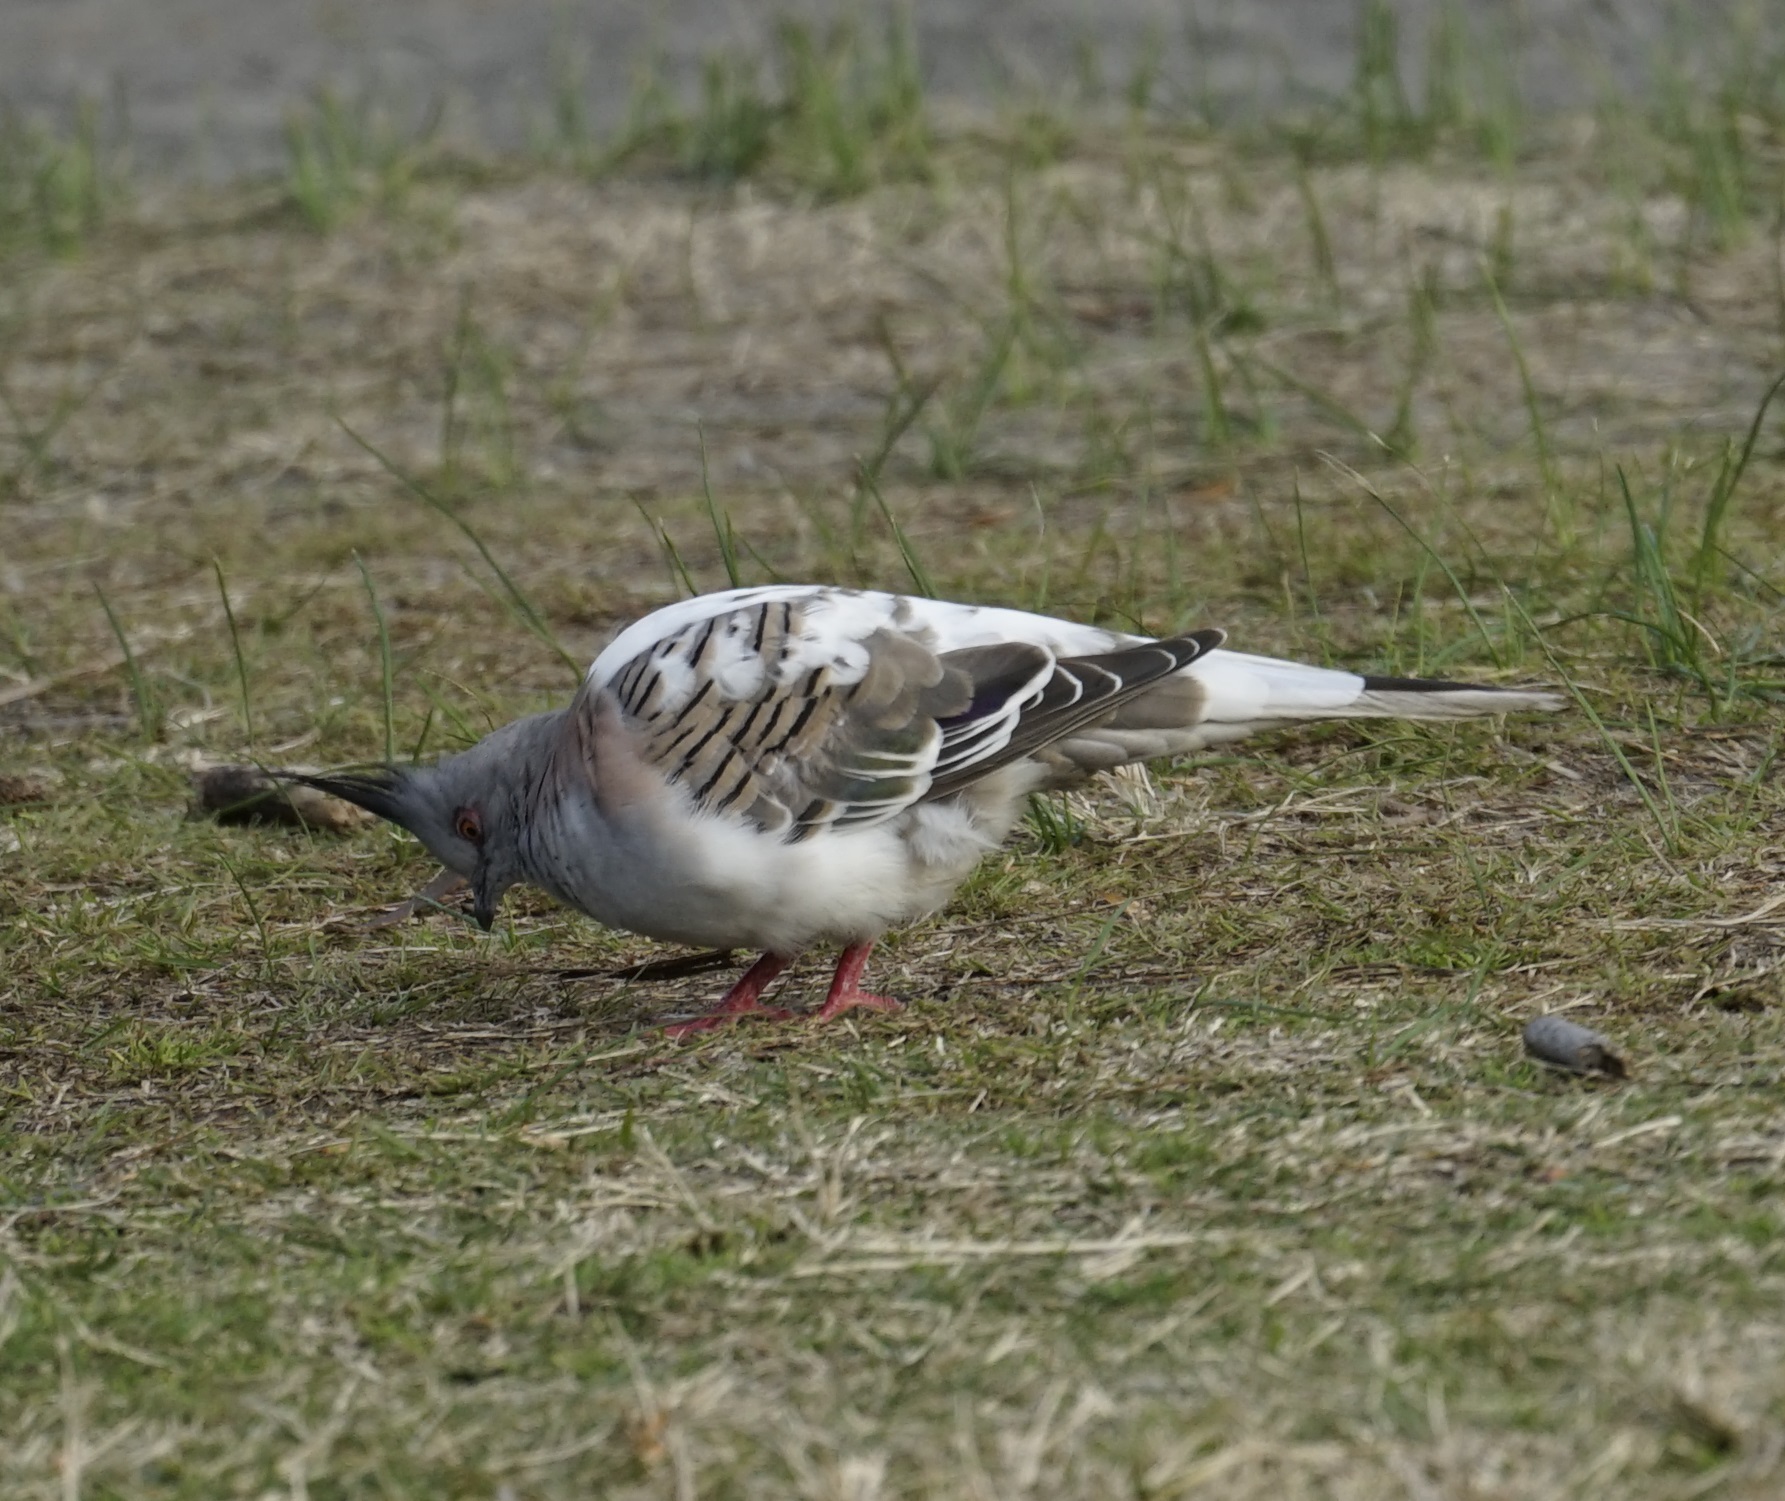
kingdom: Animalia
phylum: Chordata
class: Aves
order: Columbiformes
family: Columbidae
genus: Ocyphaps
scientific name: Ocyphaps lophotes
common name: Crested pigeon
